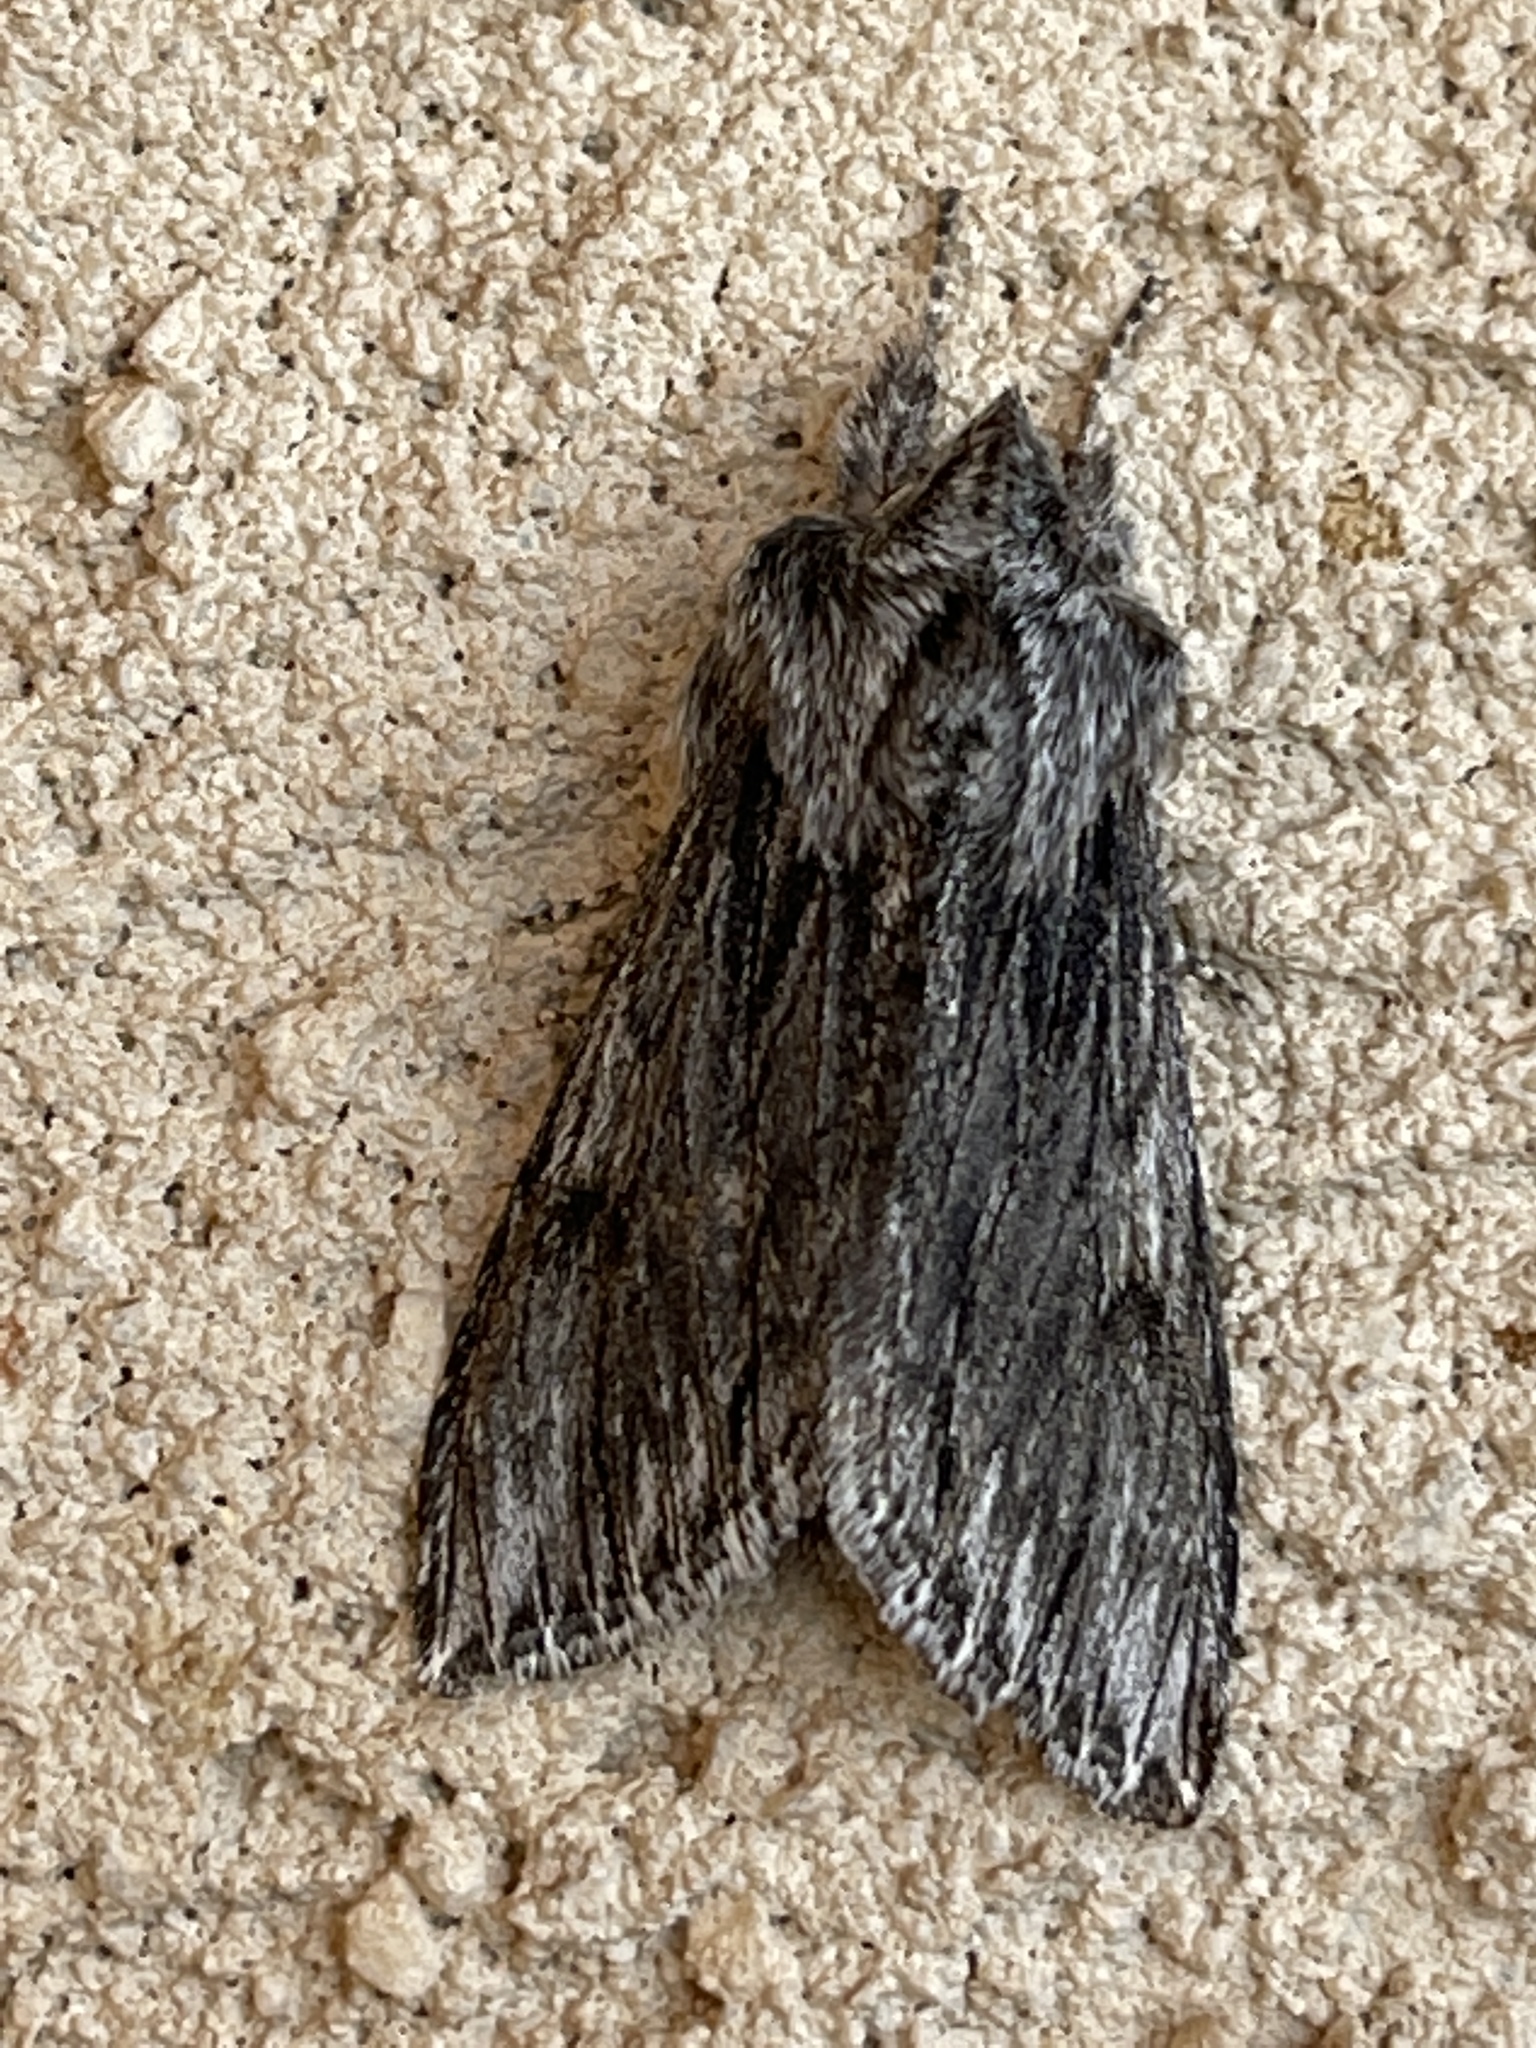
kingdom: Animalia
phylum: Arthropoda
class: Insecta
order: Lepidoptera
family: Noctuidae
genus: Cucullia
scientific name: Cucullia pulla
